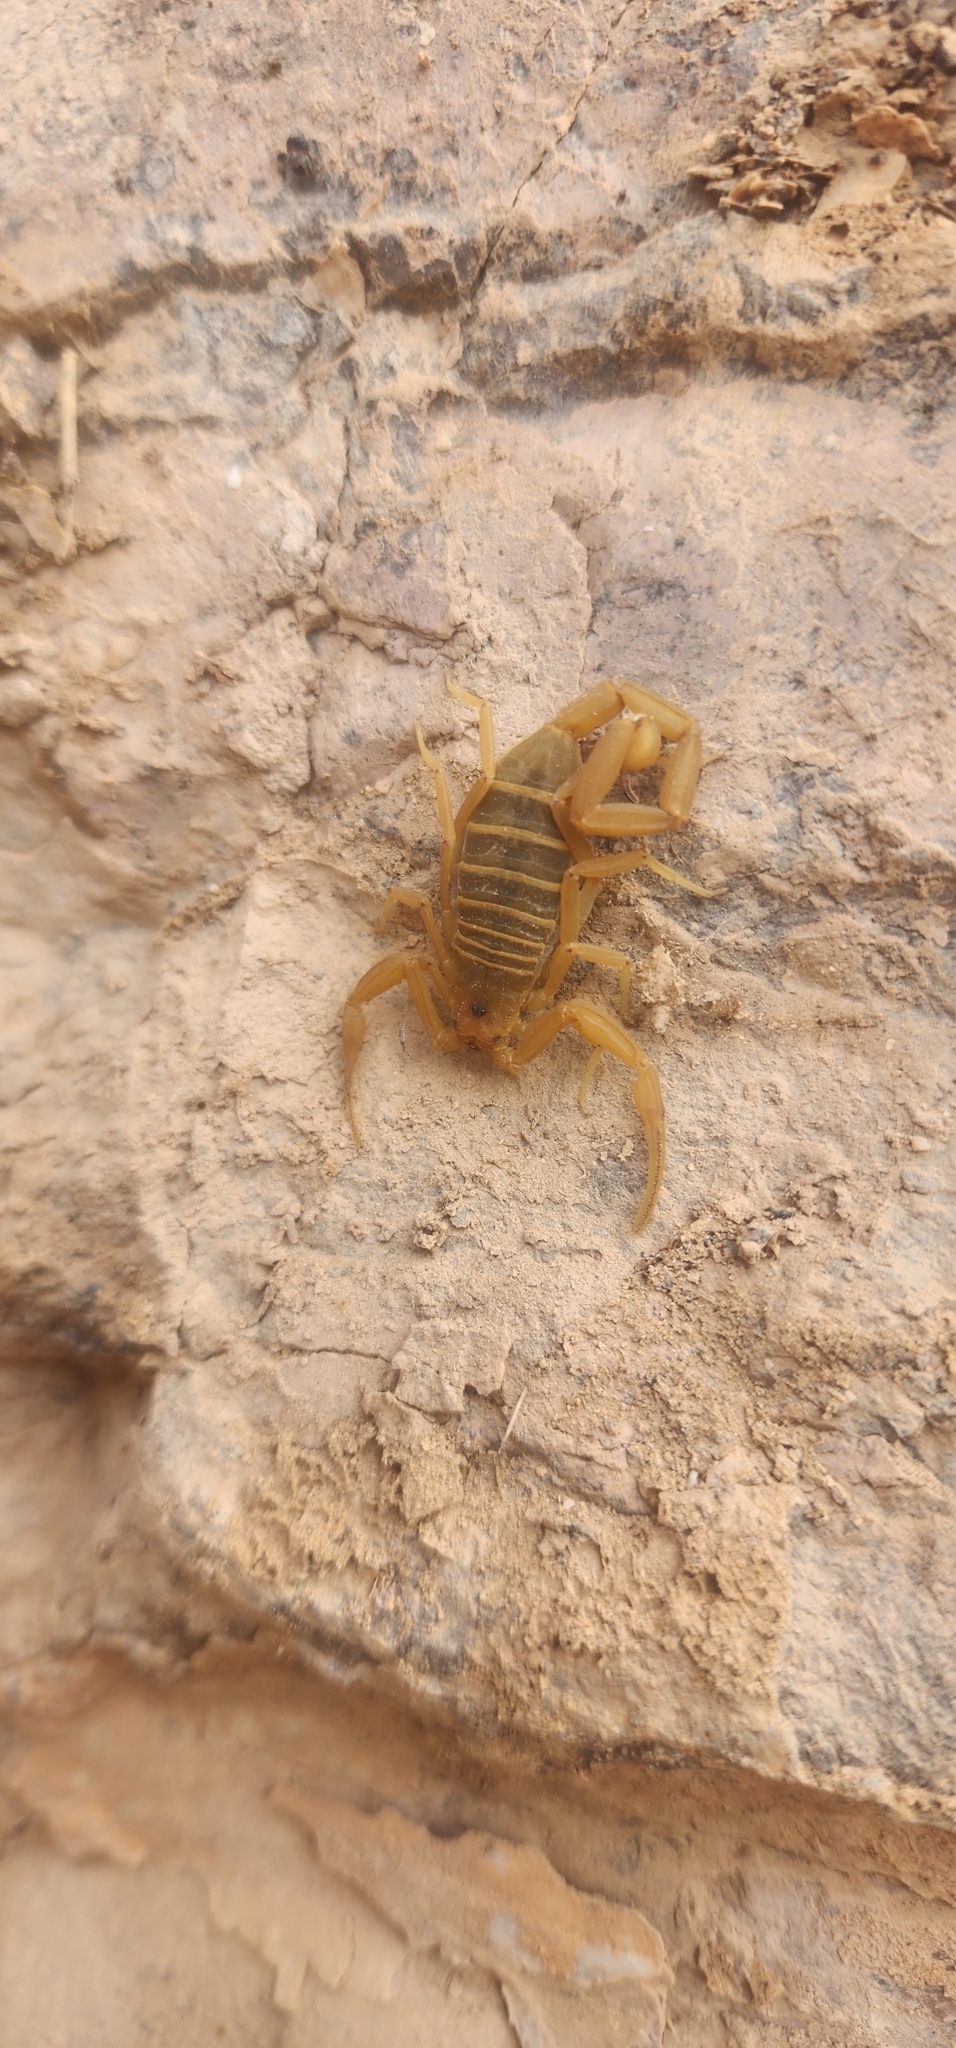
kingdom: Animalia
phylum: Arthropoda
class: Arachnida
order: Scorpiones
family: Buthidae
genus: Centruroides
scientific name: Centruroides sculpturatus
